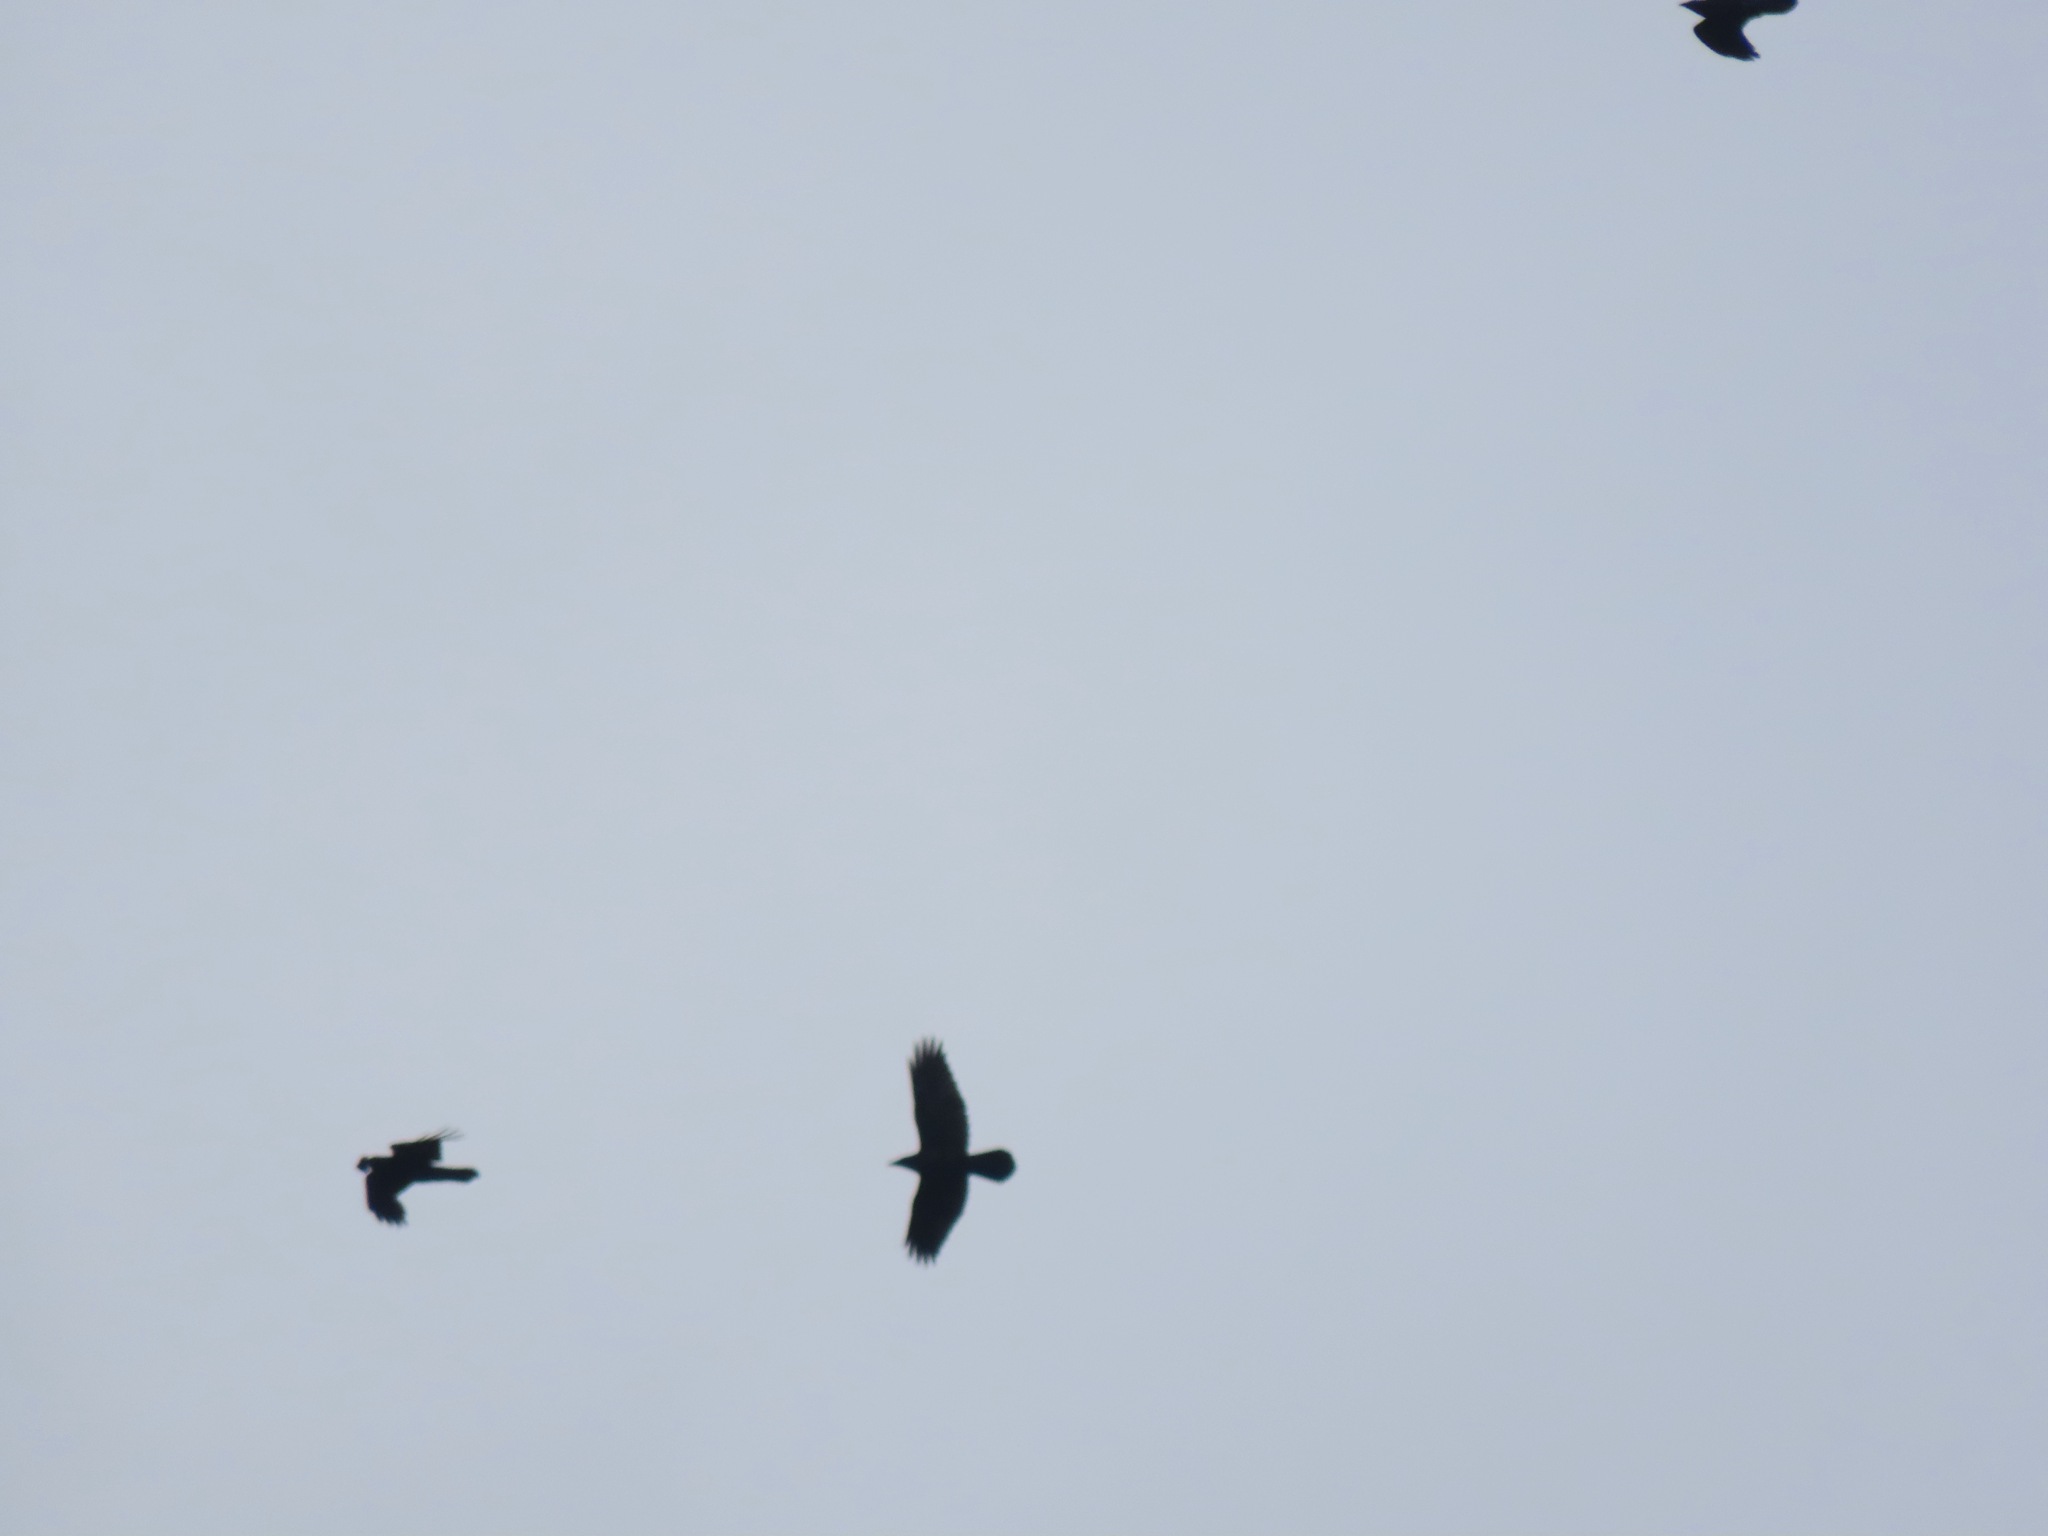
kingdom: Animalia
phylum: Chordata
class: Aves
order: Passeriformes
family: Corvidae
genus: Corvus
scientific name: Corvus corax
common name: Common raven
